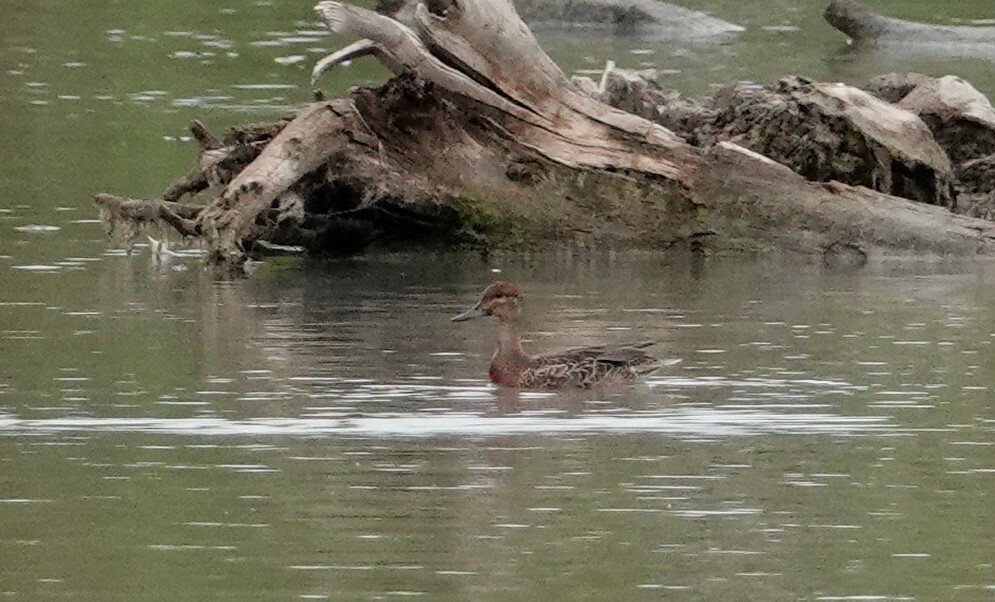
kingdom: Animalia
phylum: Chordata
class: Aves
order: Anseriformes
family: Anatidae
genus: Anas
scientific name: Anas crecca
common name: Eurasian teal
